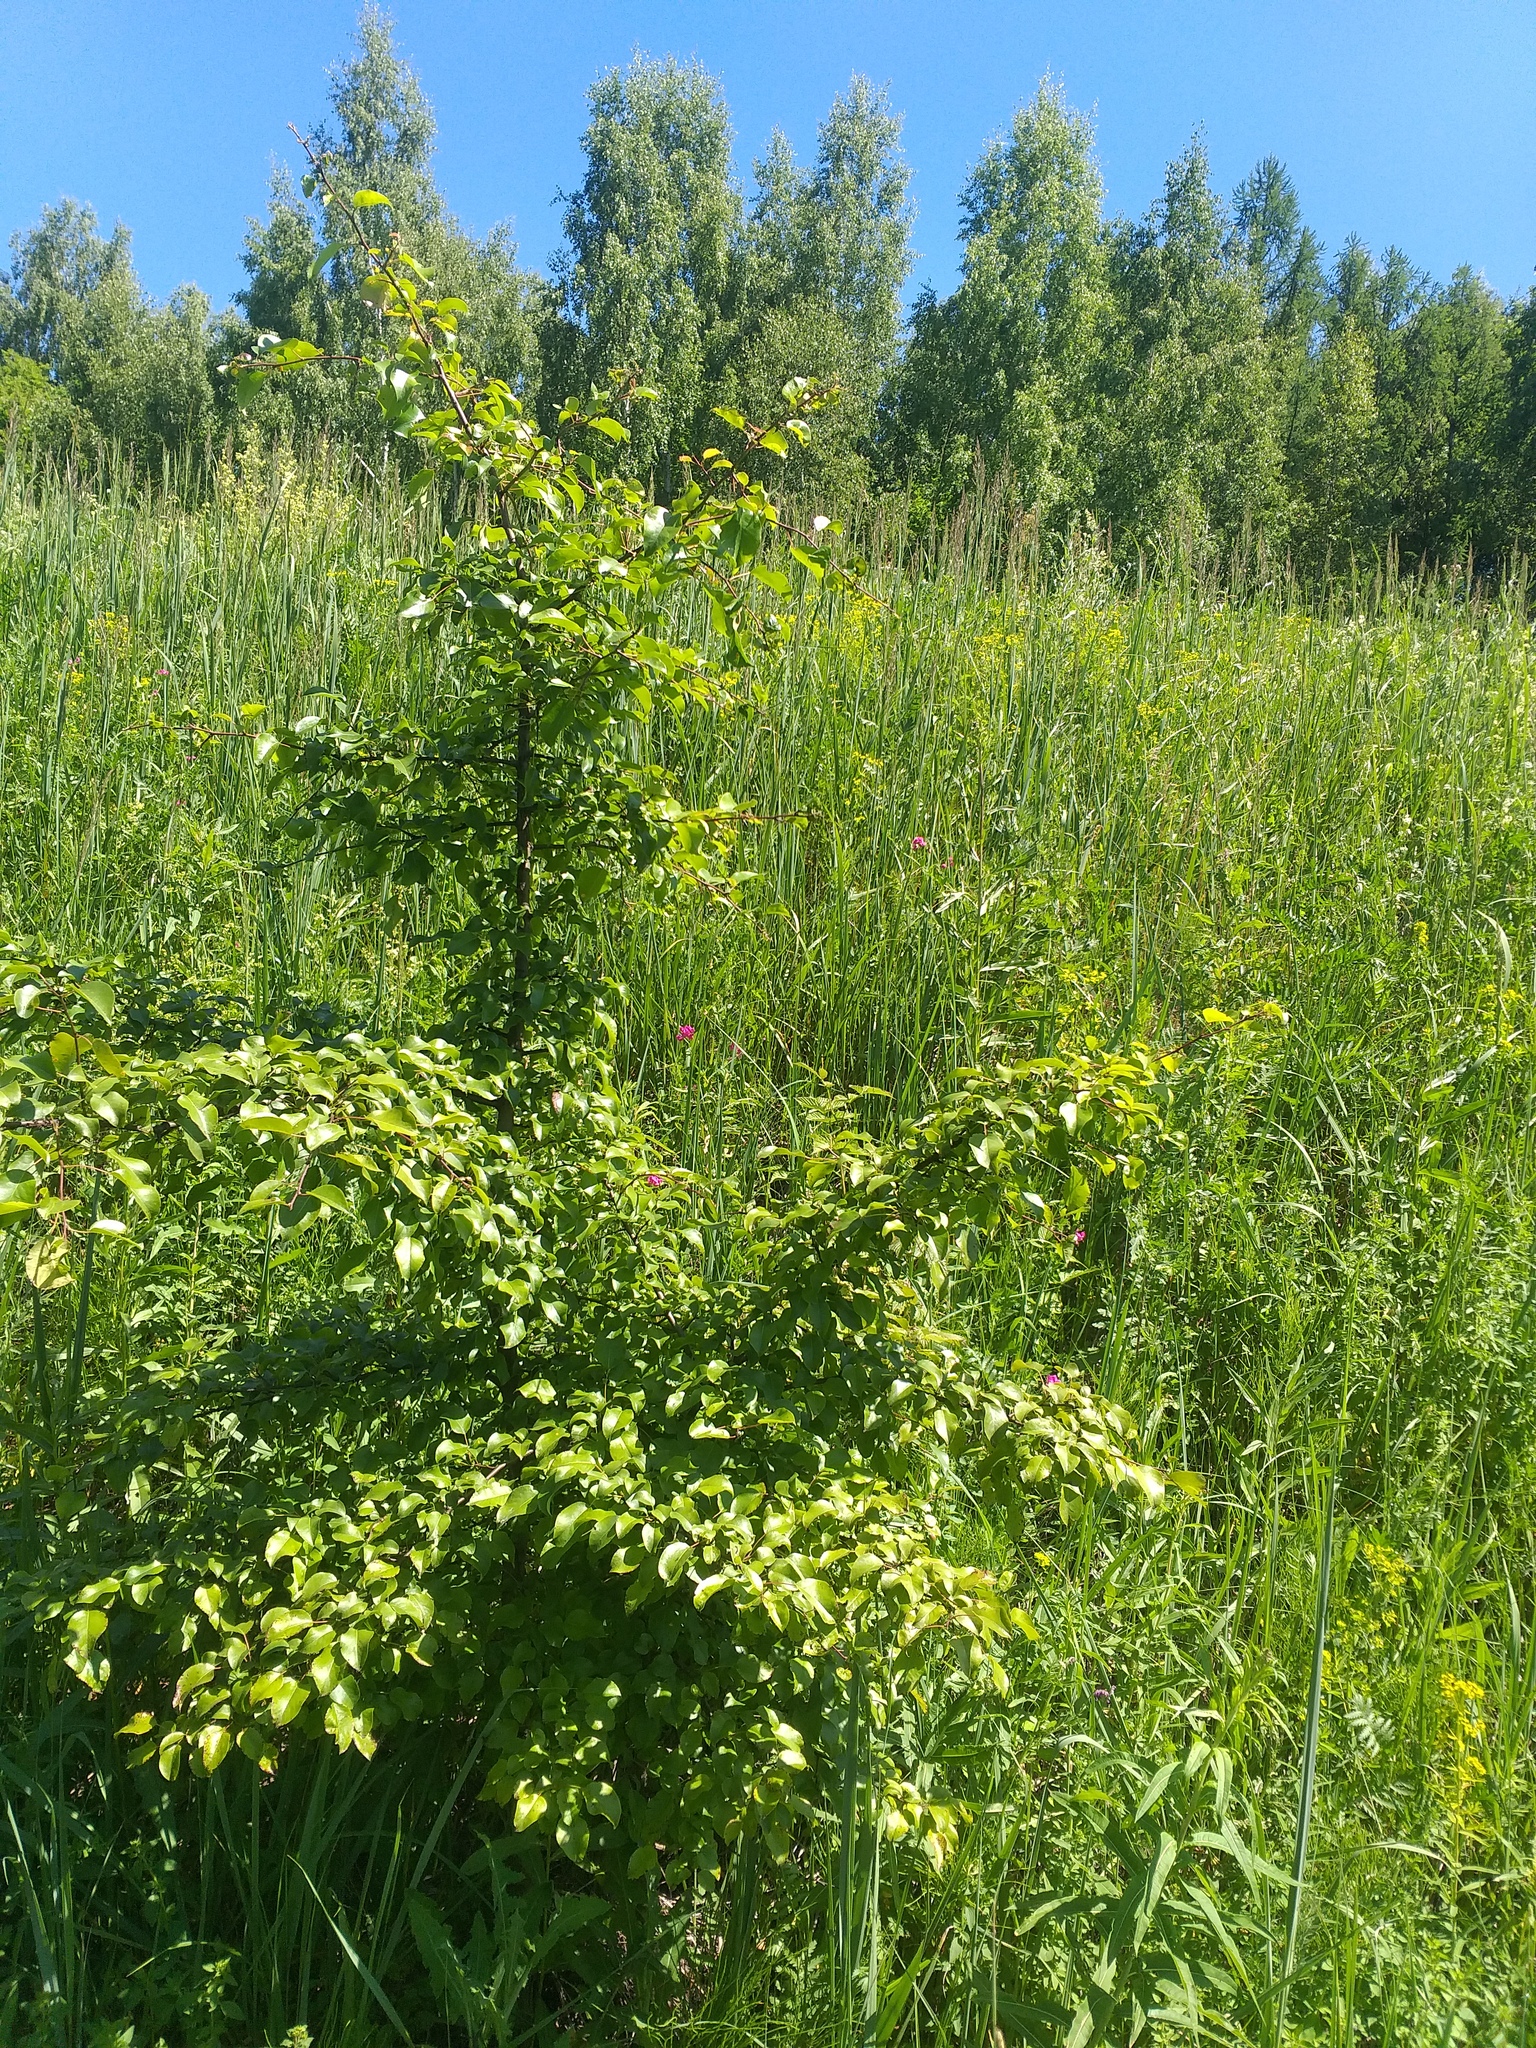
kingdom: Plantae
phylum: Tracheophyta
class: Magnoliopsida
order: Rosales
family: Rosaceae
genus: Pyrus
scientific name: Pyrus communis
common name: Pear
